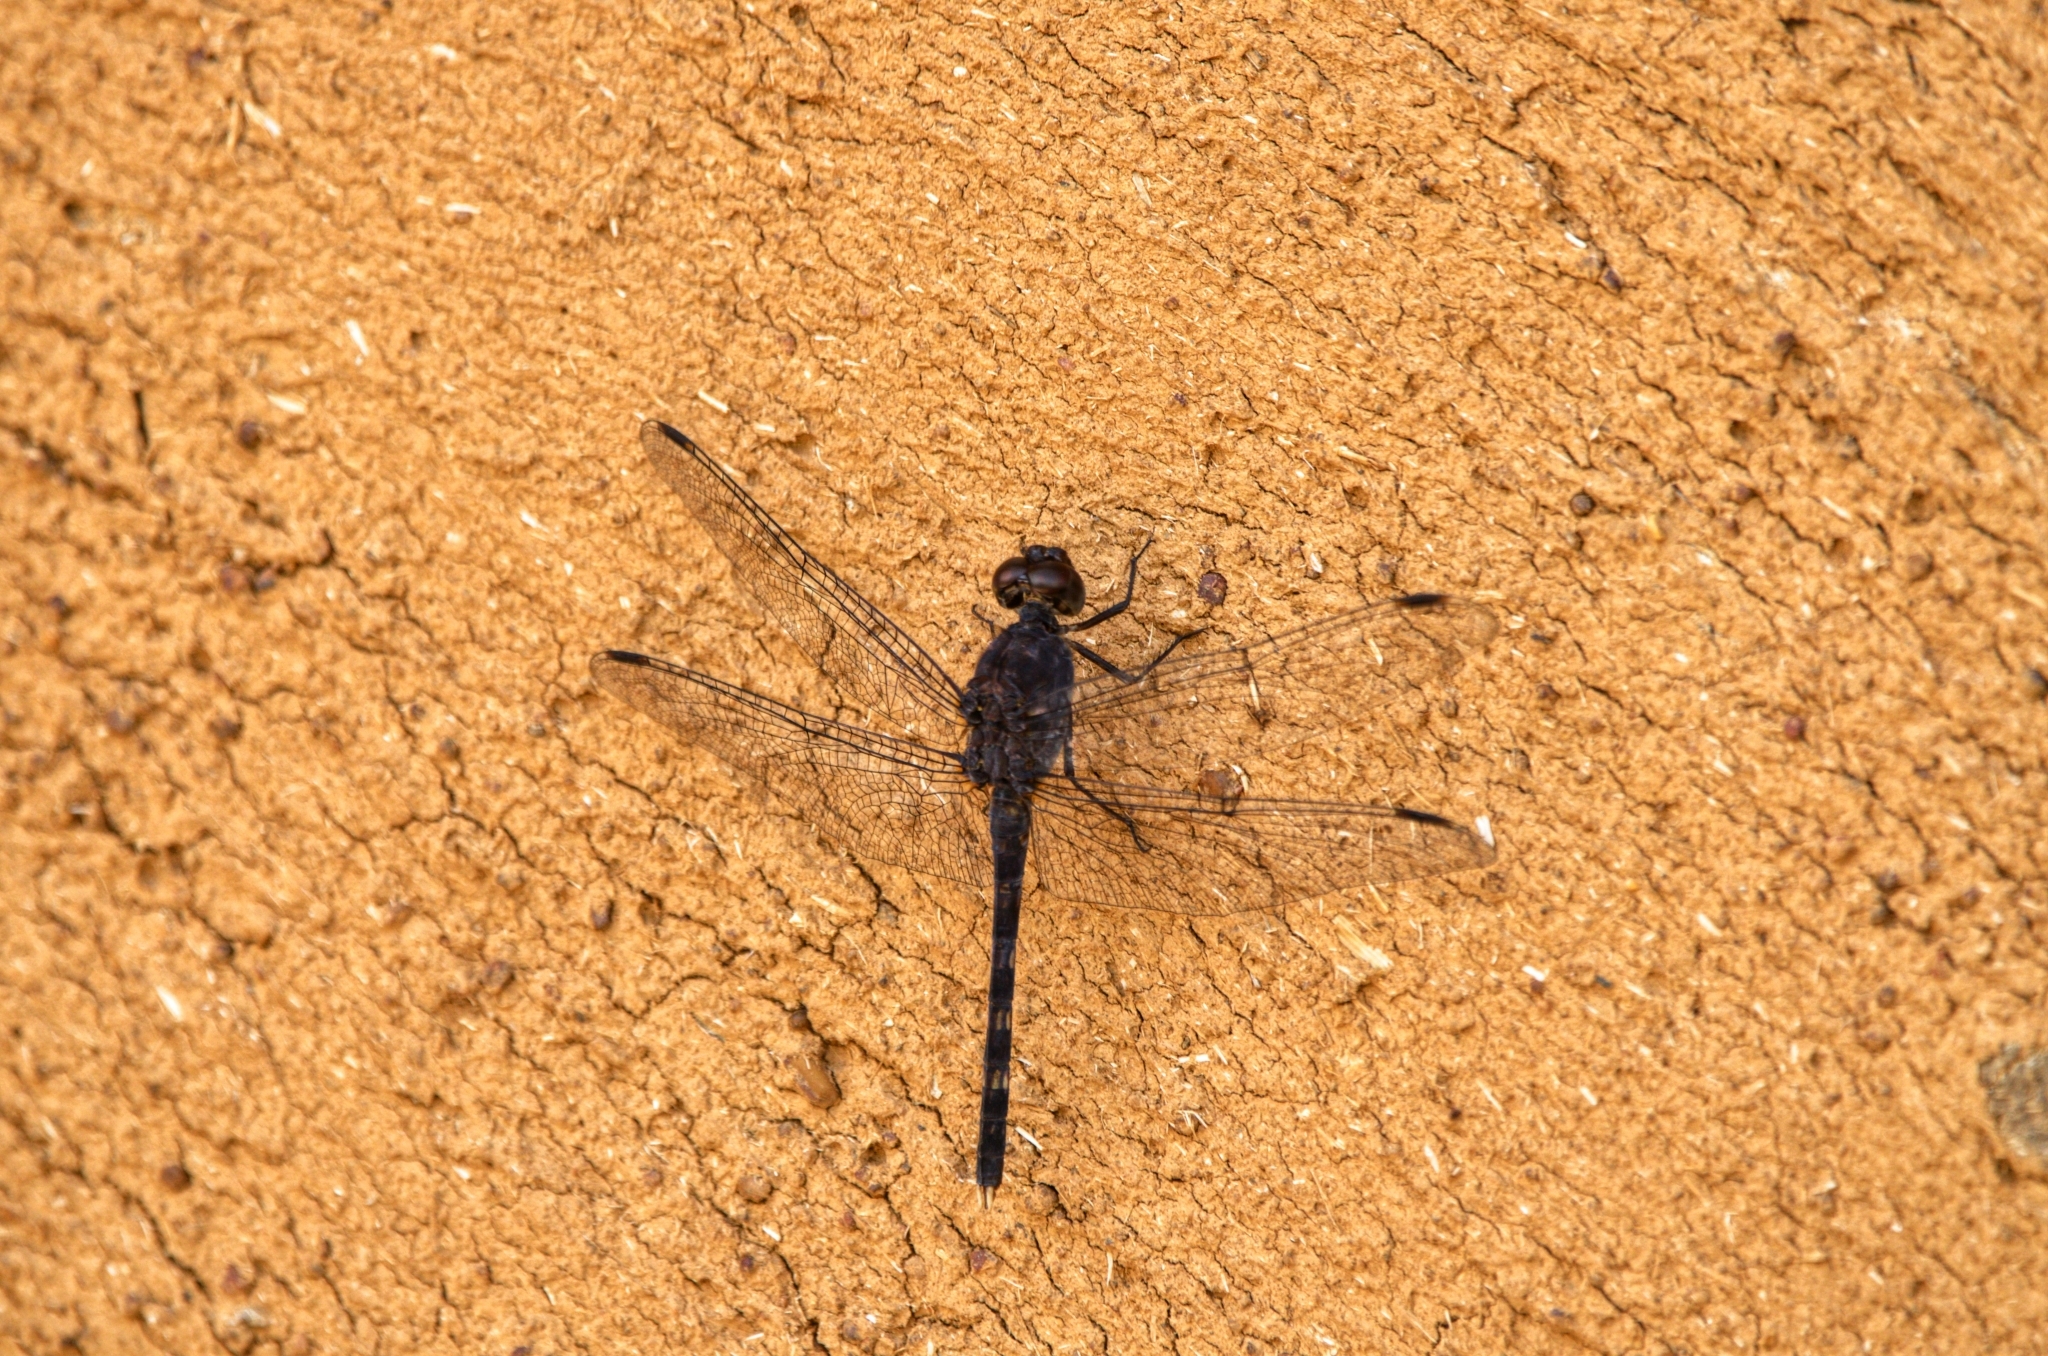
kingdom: Animalia
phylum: Arthropoda
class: Insecta
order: Odonata
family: Libellulidae
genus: Bradinopyga
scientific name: Bradinopyga konkanensis
